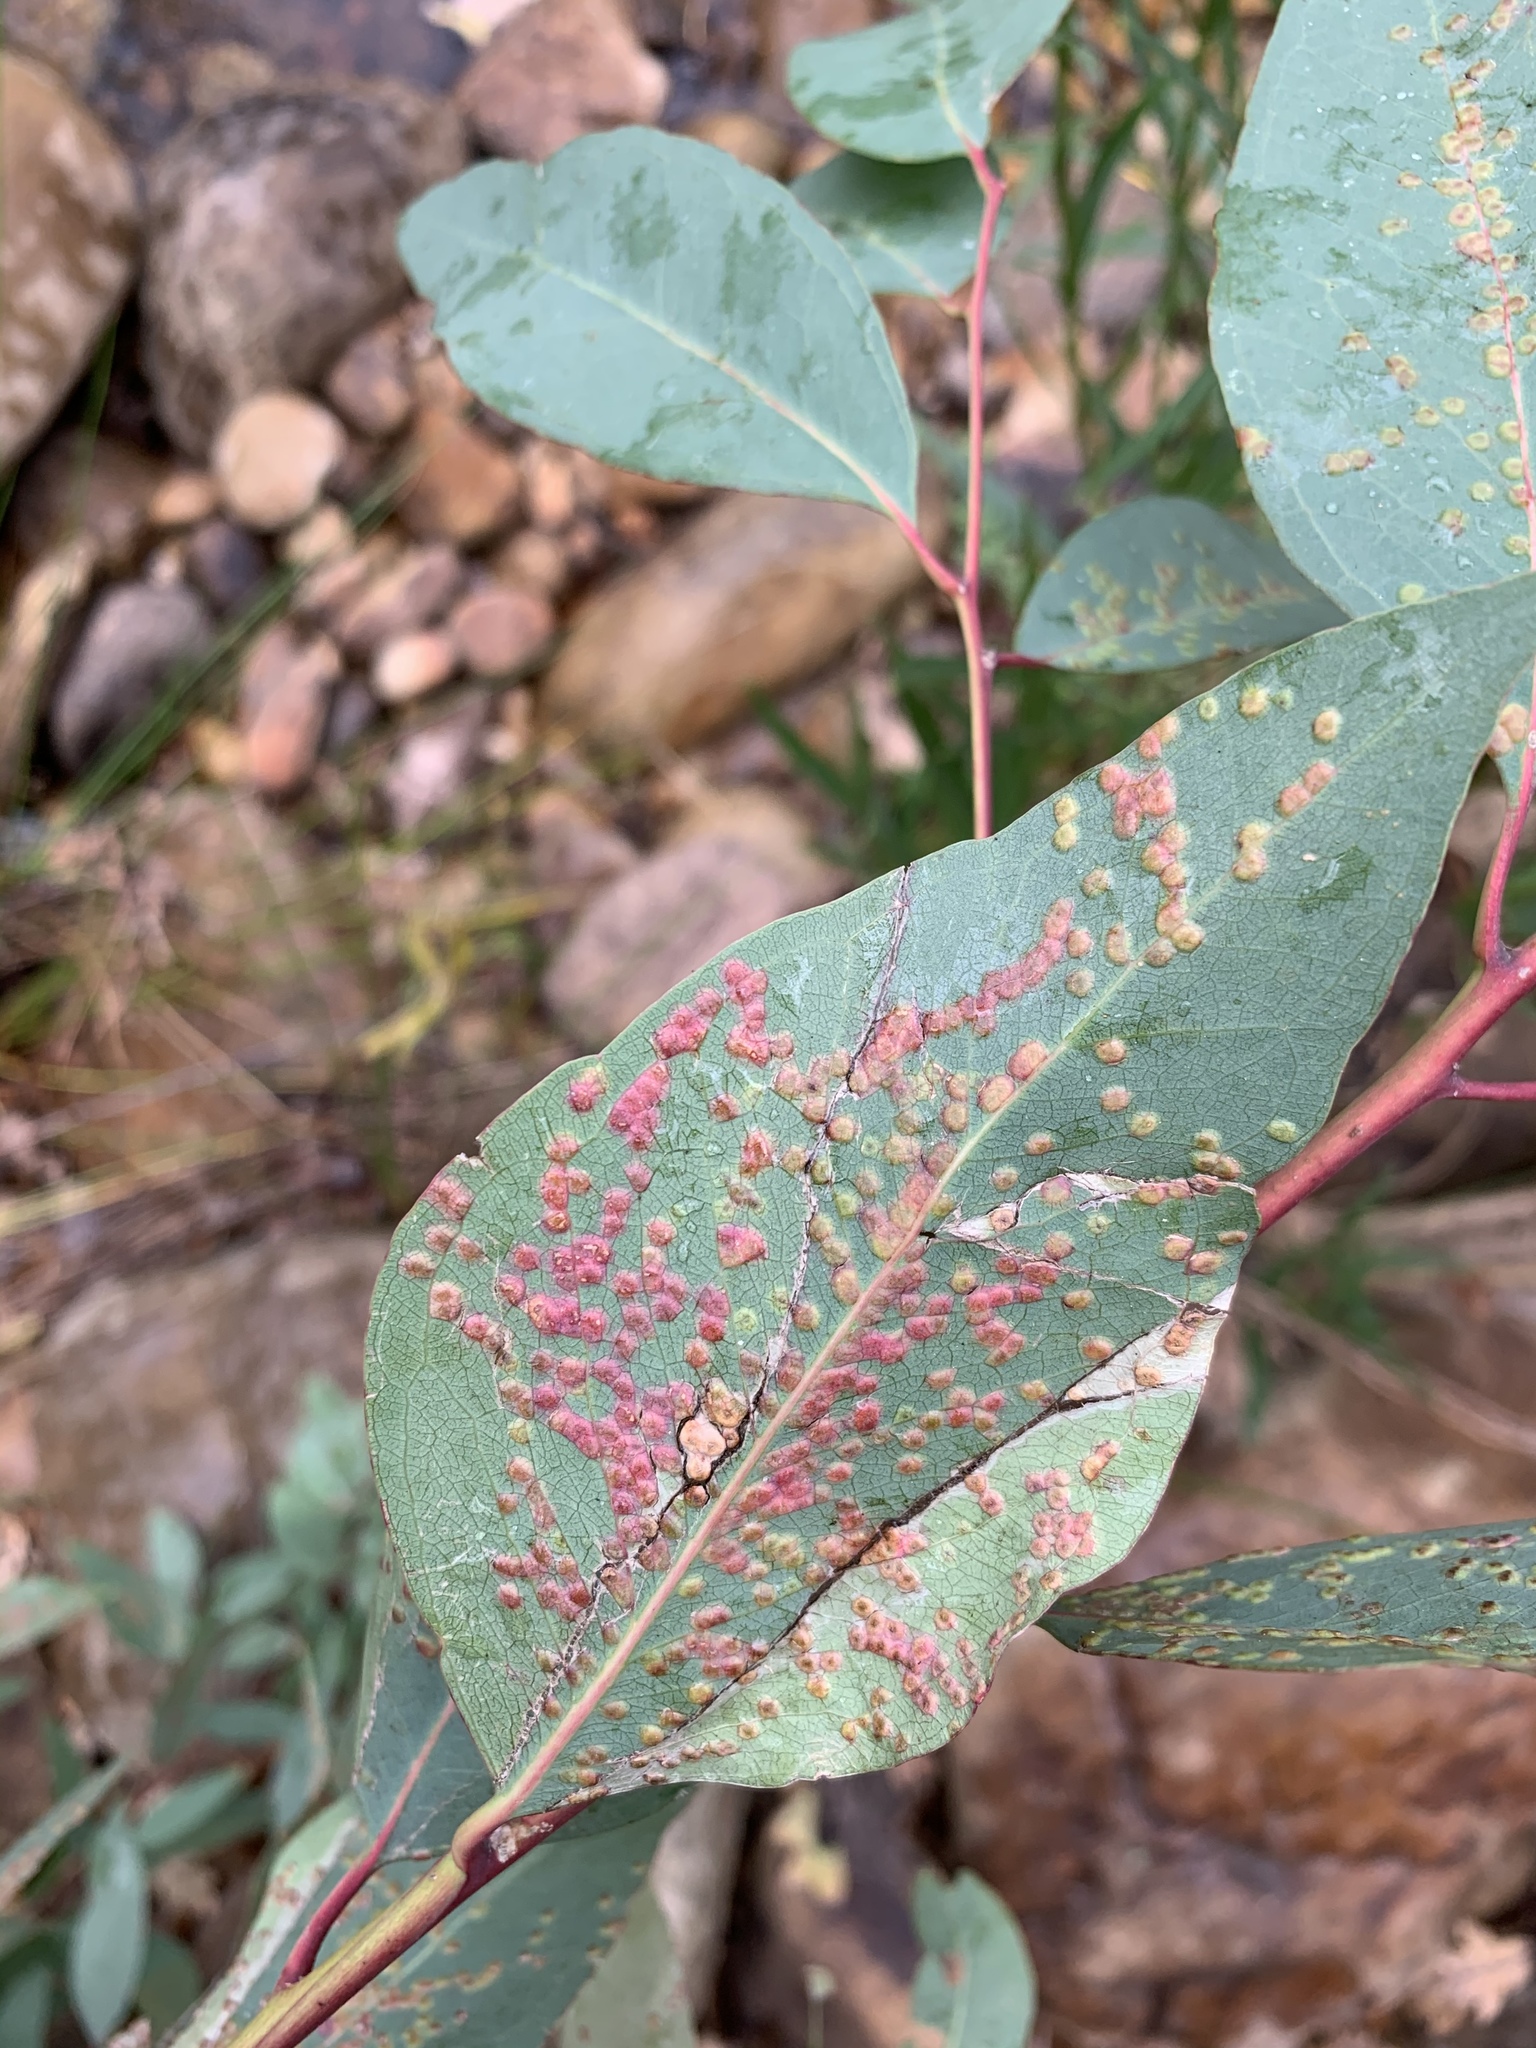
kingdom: Animalia
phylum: Arthropoda
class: Insecta
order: Hymenoptera
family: Eulophidae
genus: Ophelimus
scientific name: Ophelimus maskelli
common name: Gall wasp
